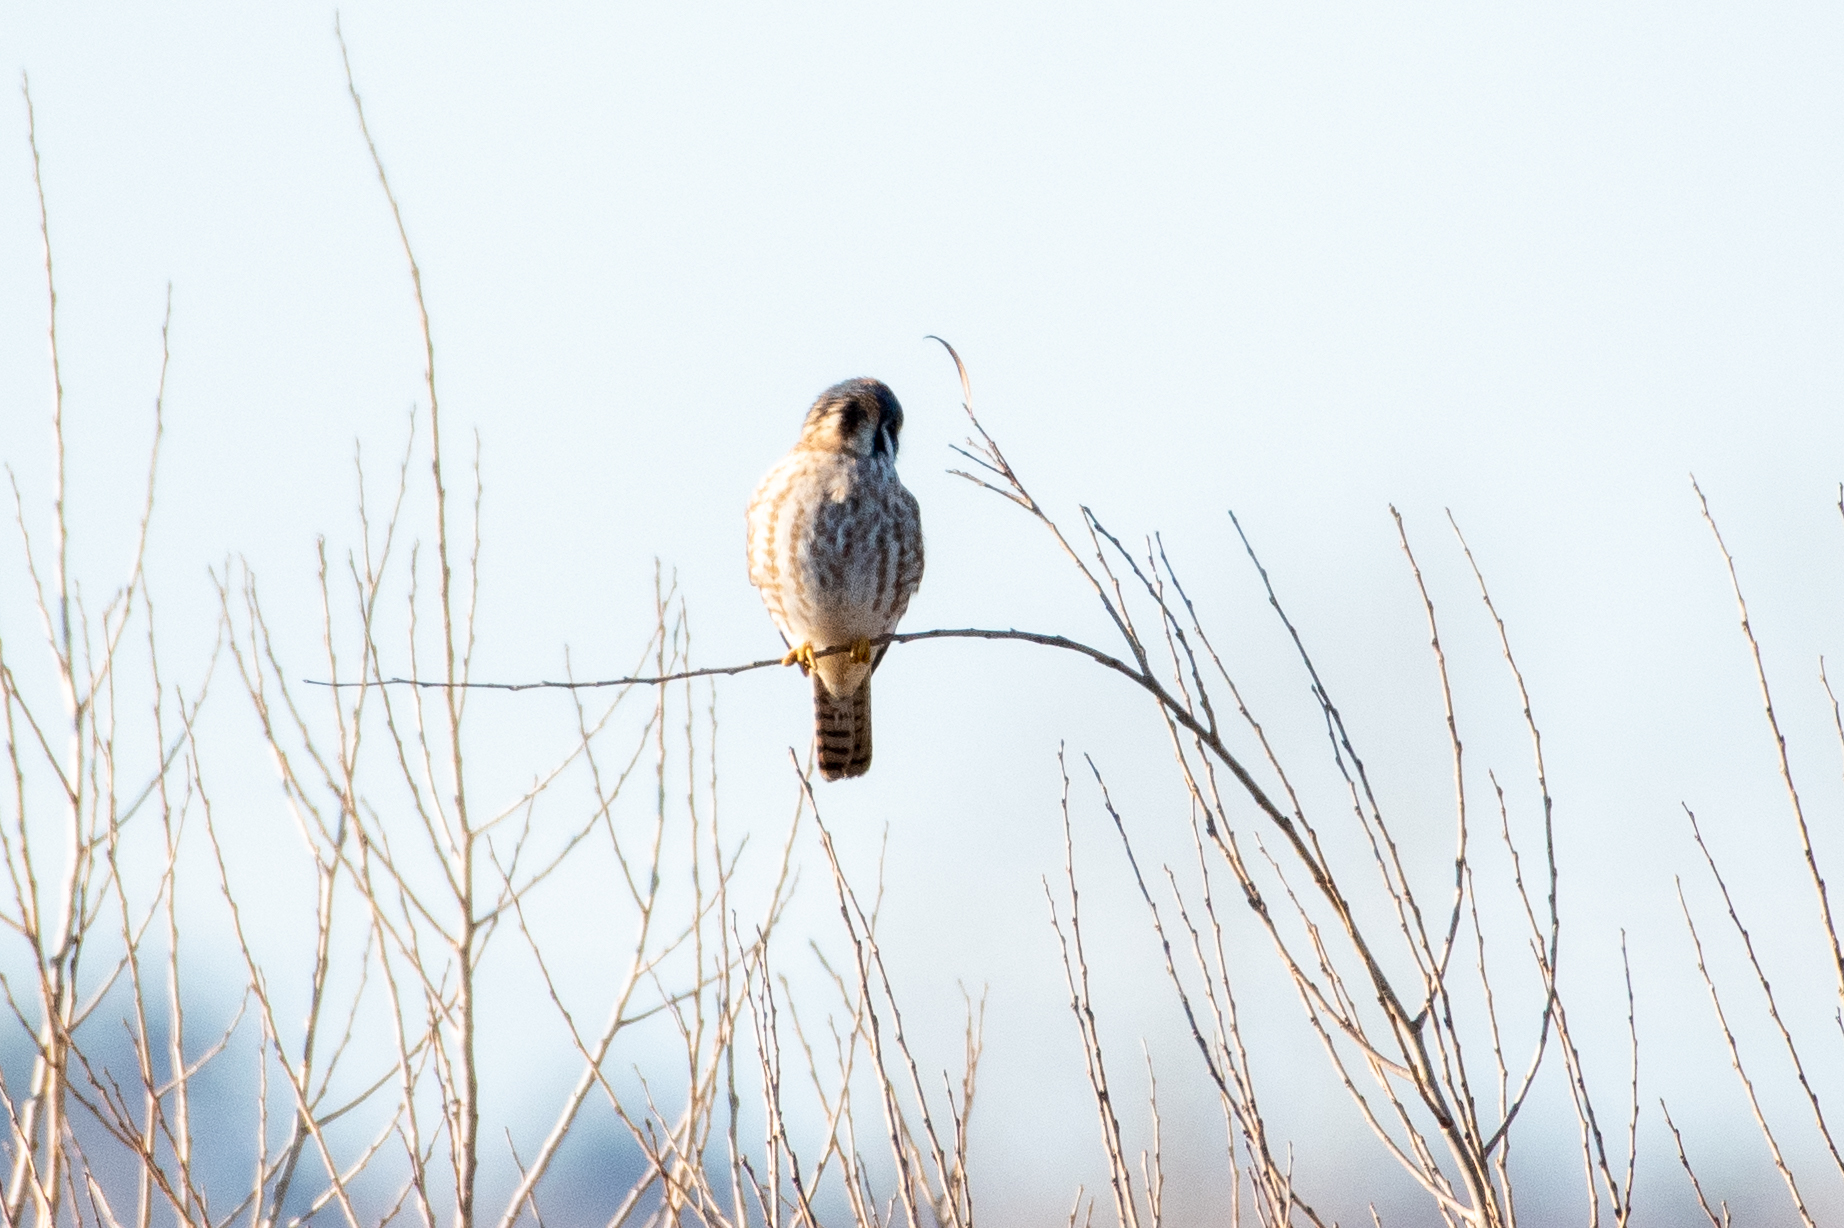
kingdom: Animalia
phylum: Chordata
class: Aves
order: Falconiformes
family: Falconidae
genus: Falco
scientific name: Falco sparverius
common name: American kestrel
